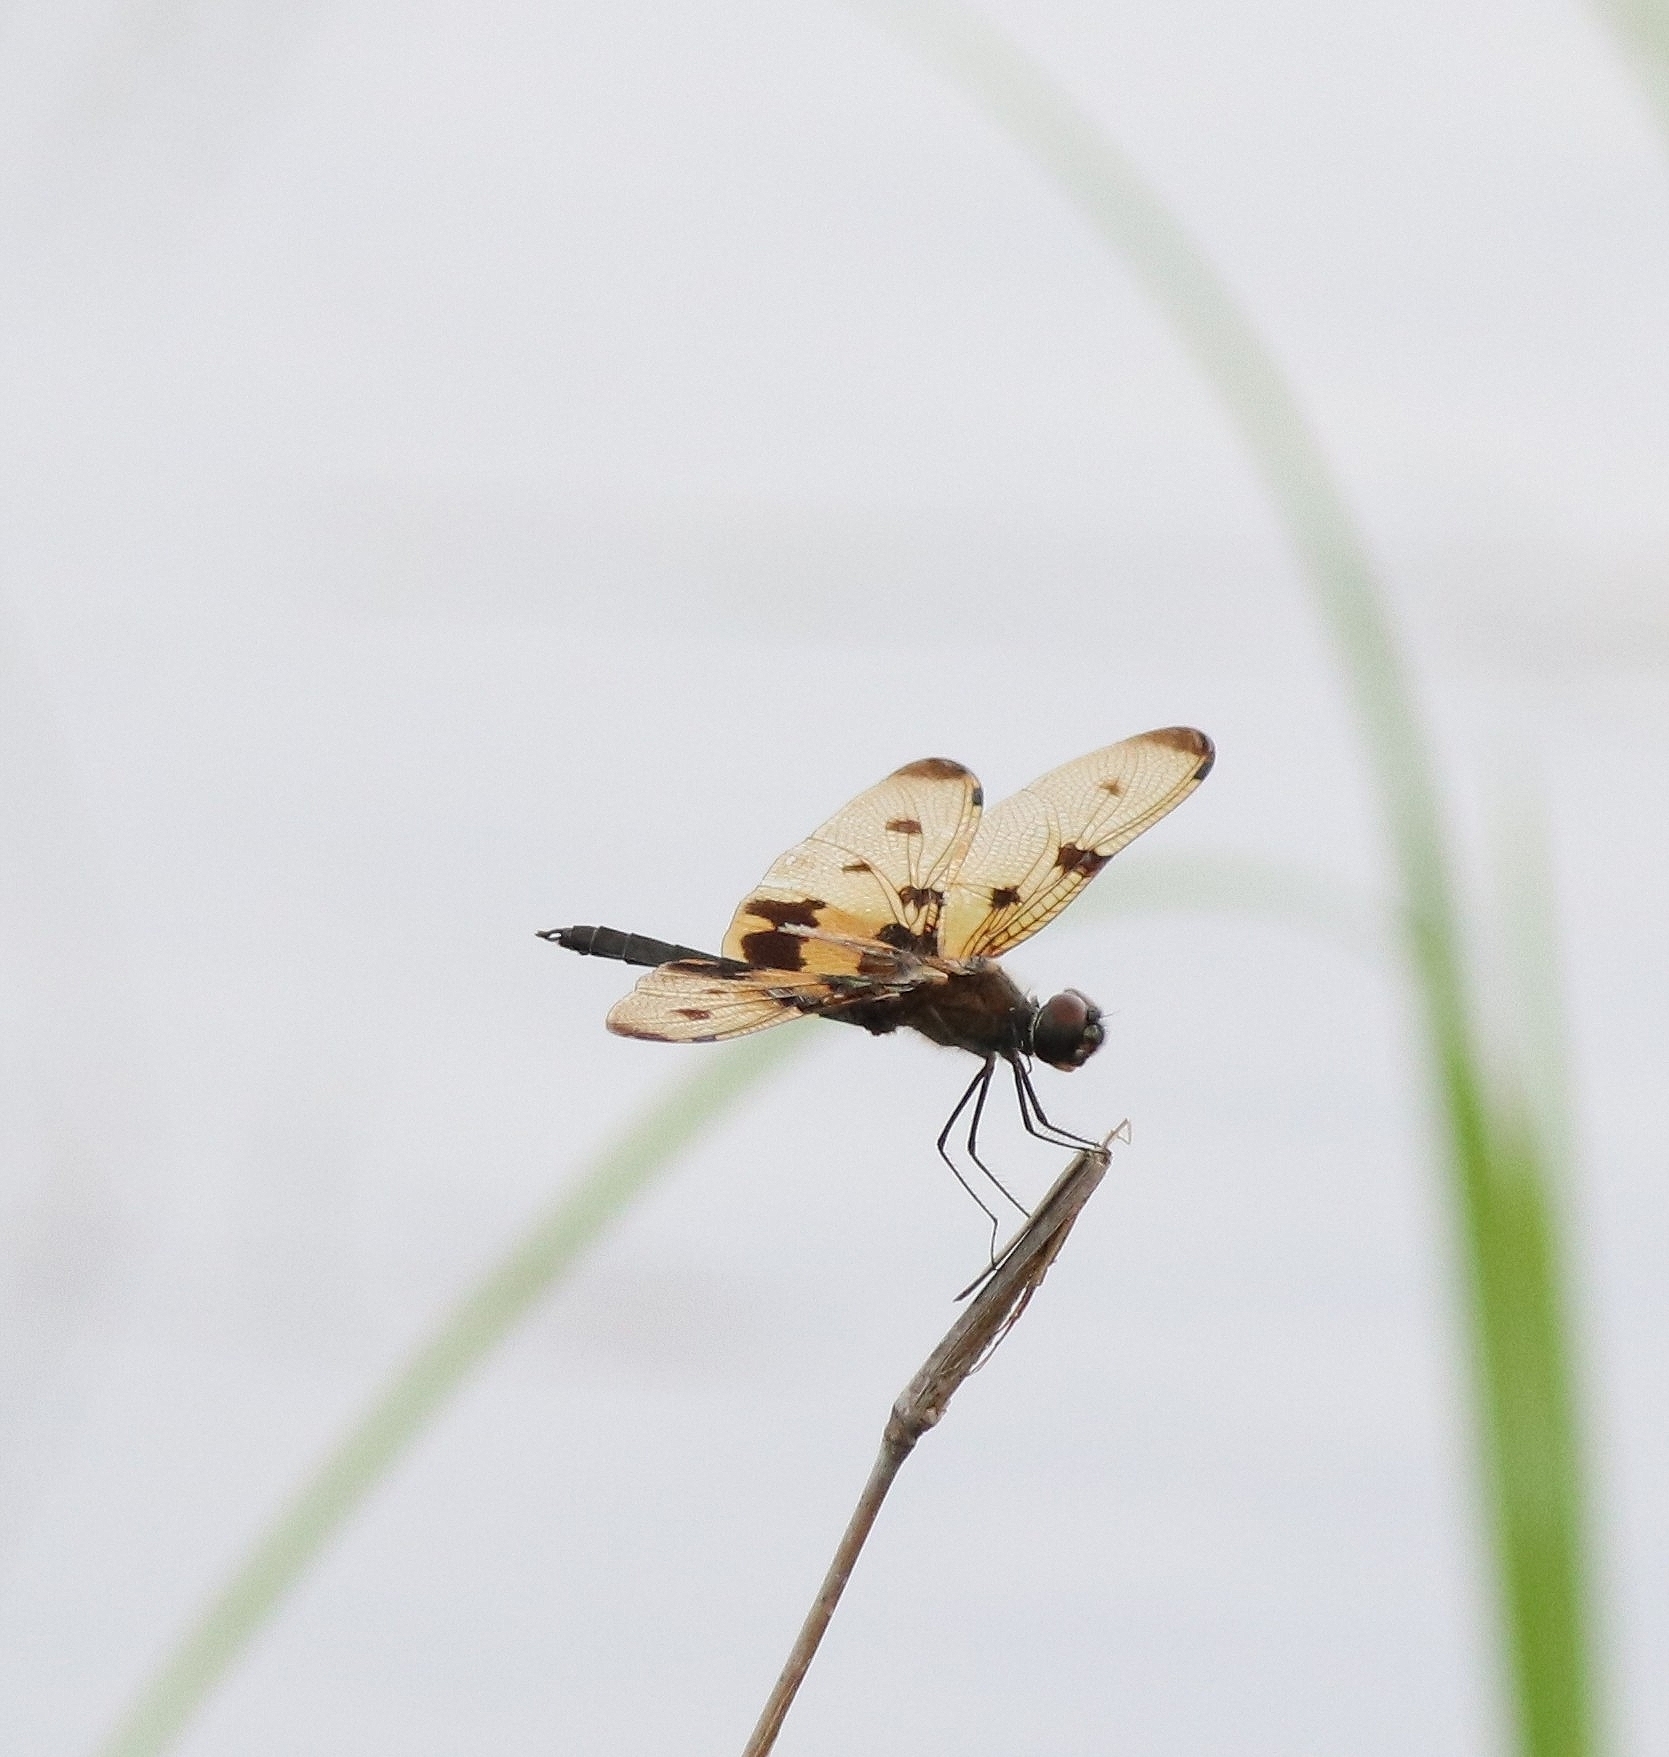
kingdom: Animalia
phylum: Arthropoda
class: Insecta
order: Odonata
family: Libellulidae
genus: Rhyothemis
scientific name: Rhyothemis variegata
